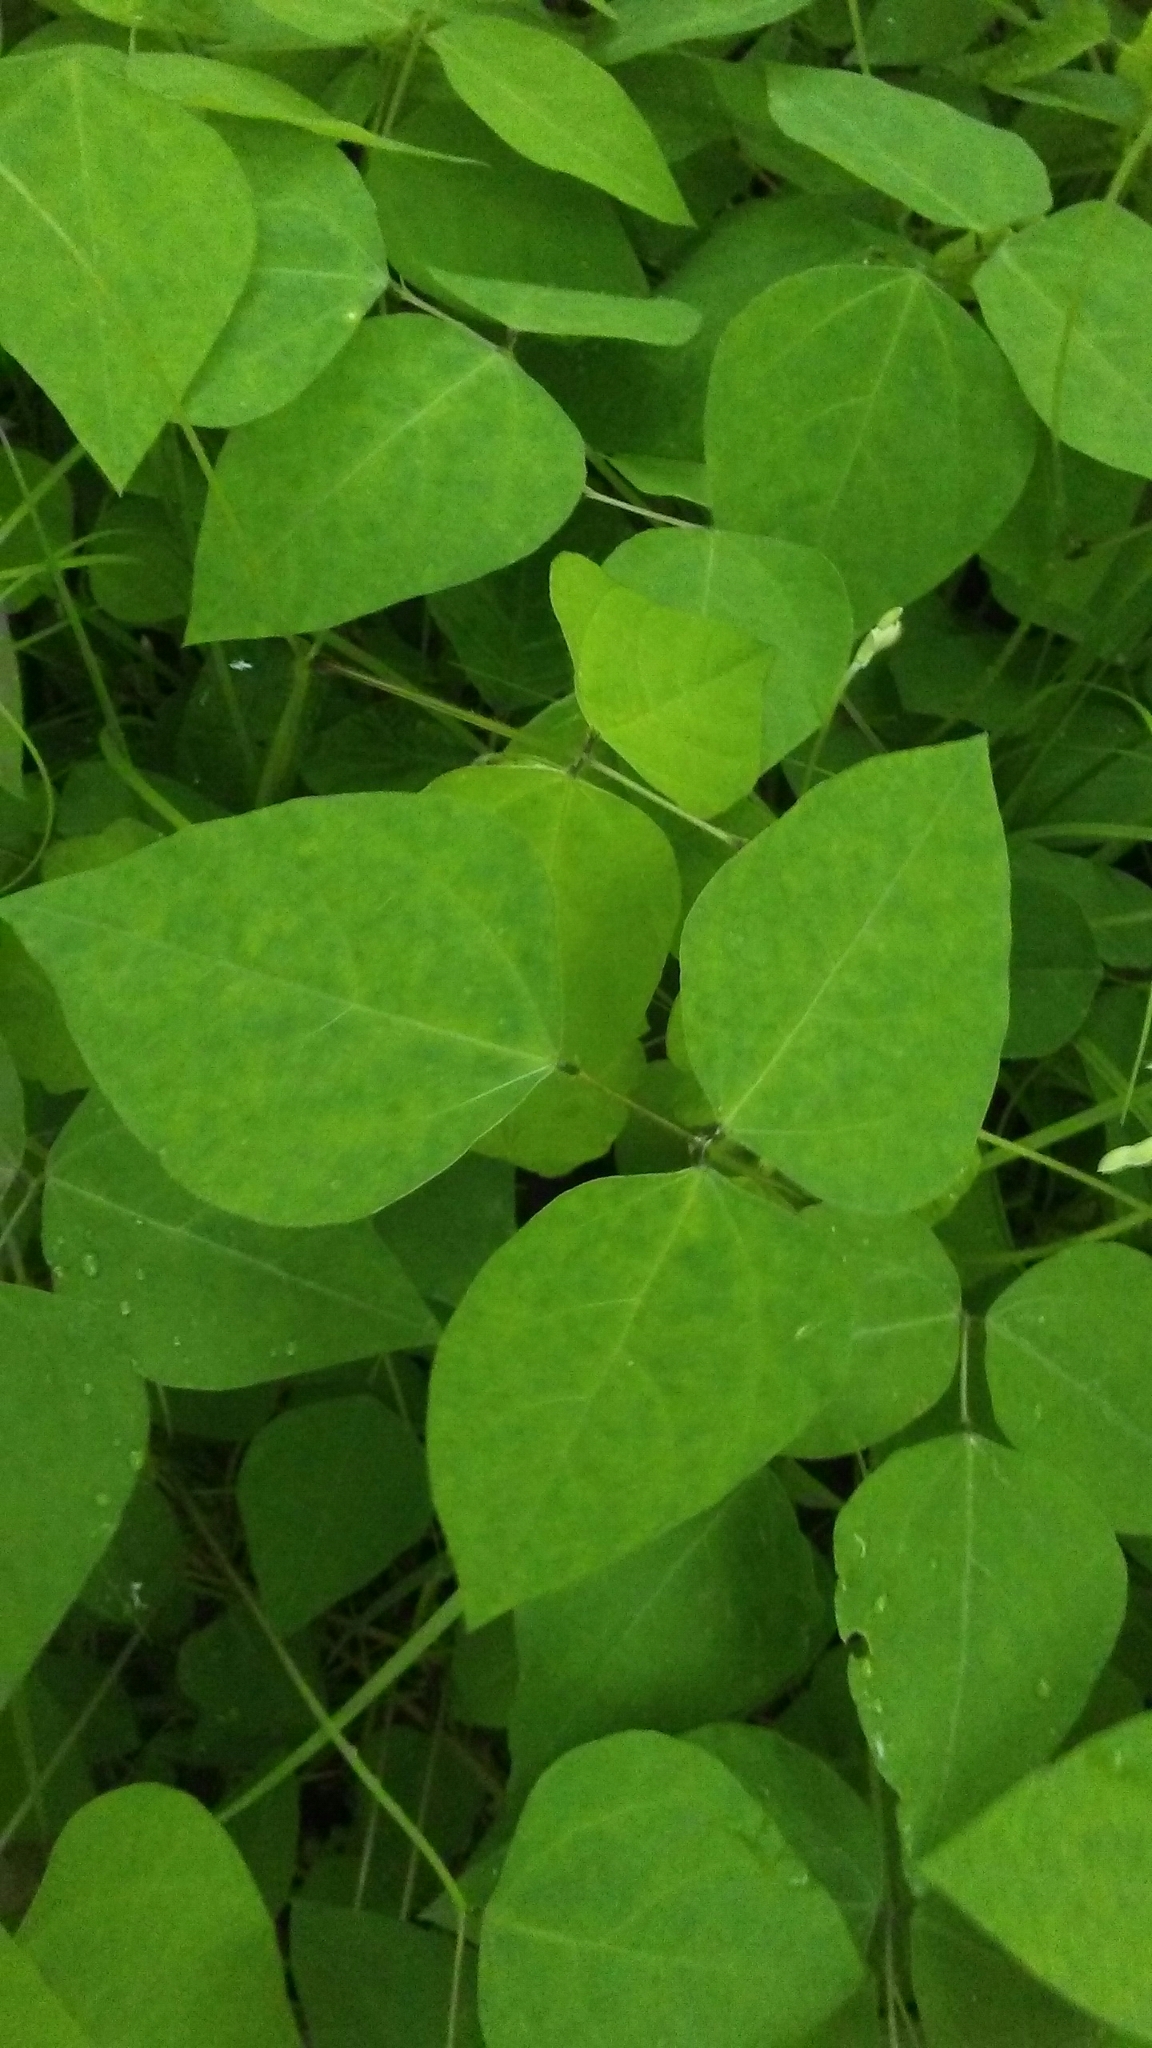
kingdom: Plantae
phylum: Tracheophyta
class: Magnoliopsida
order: Fabales
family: Fabaceae
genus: Amphicarpaea
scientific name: Amphicarpaea bracteata
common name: American hog peanut
